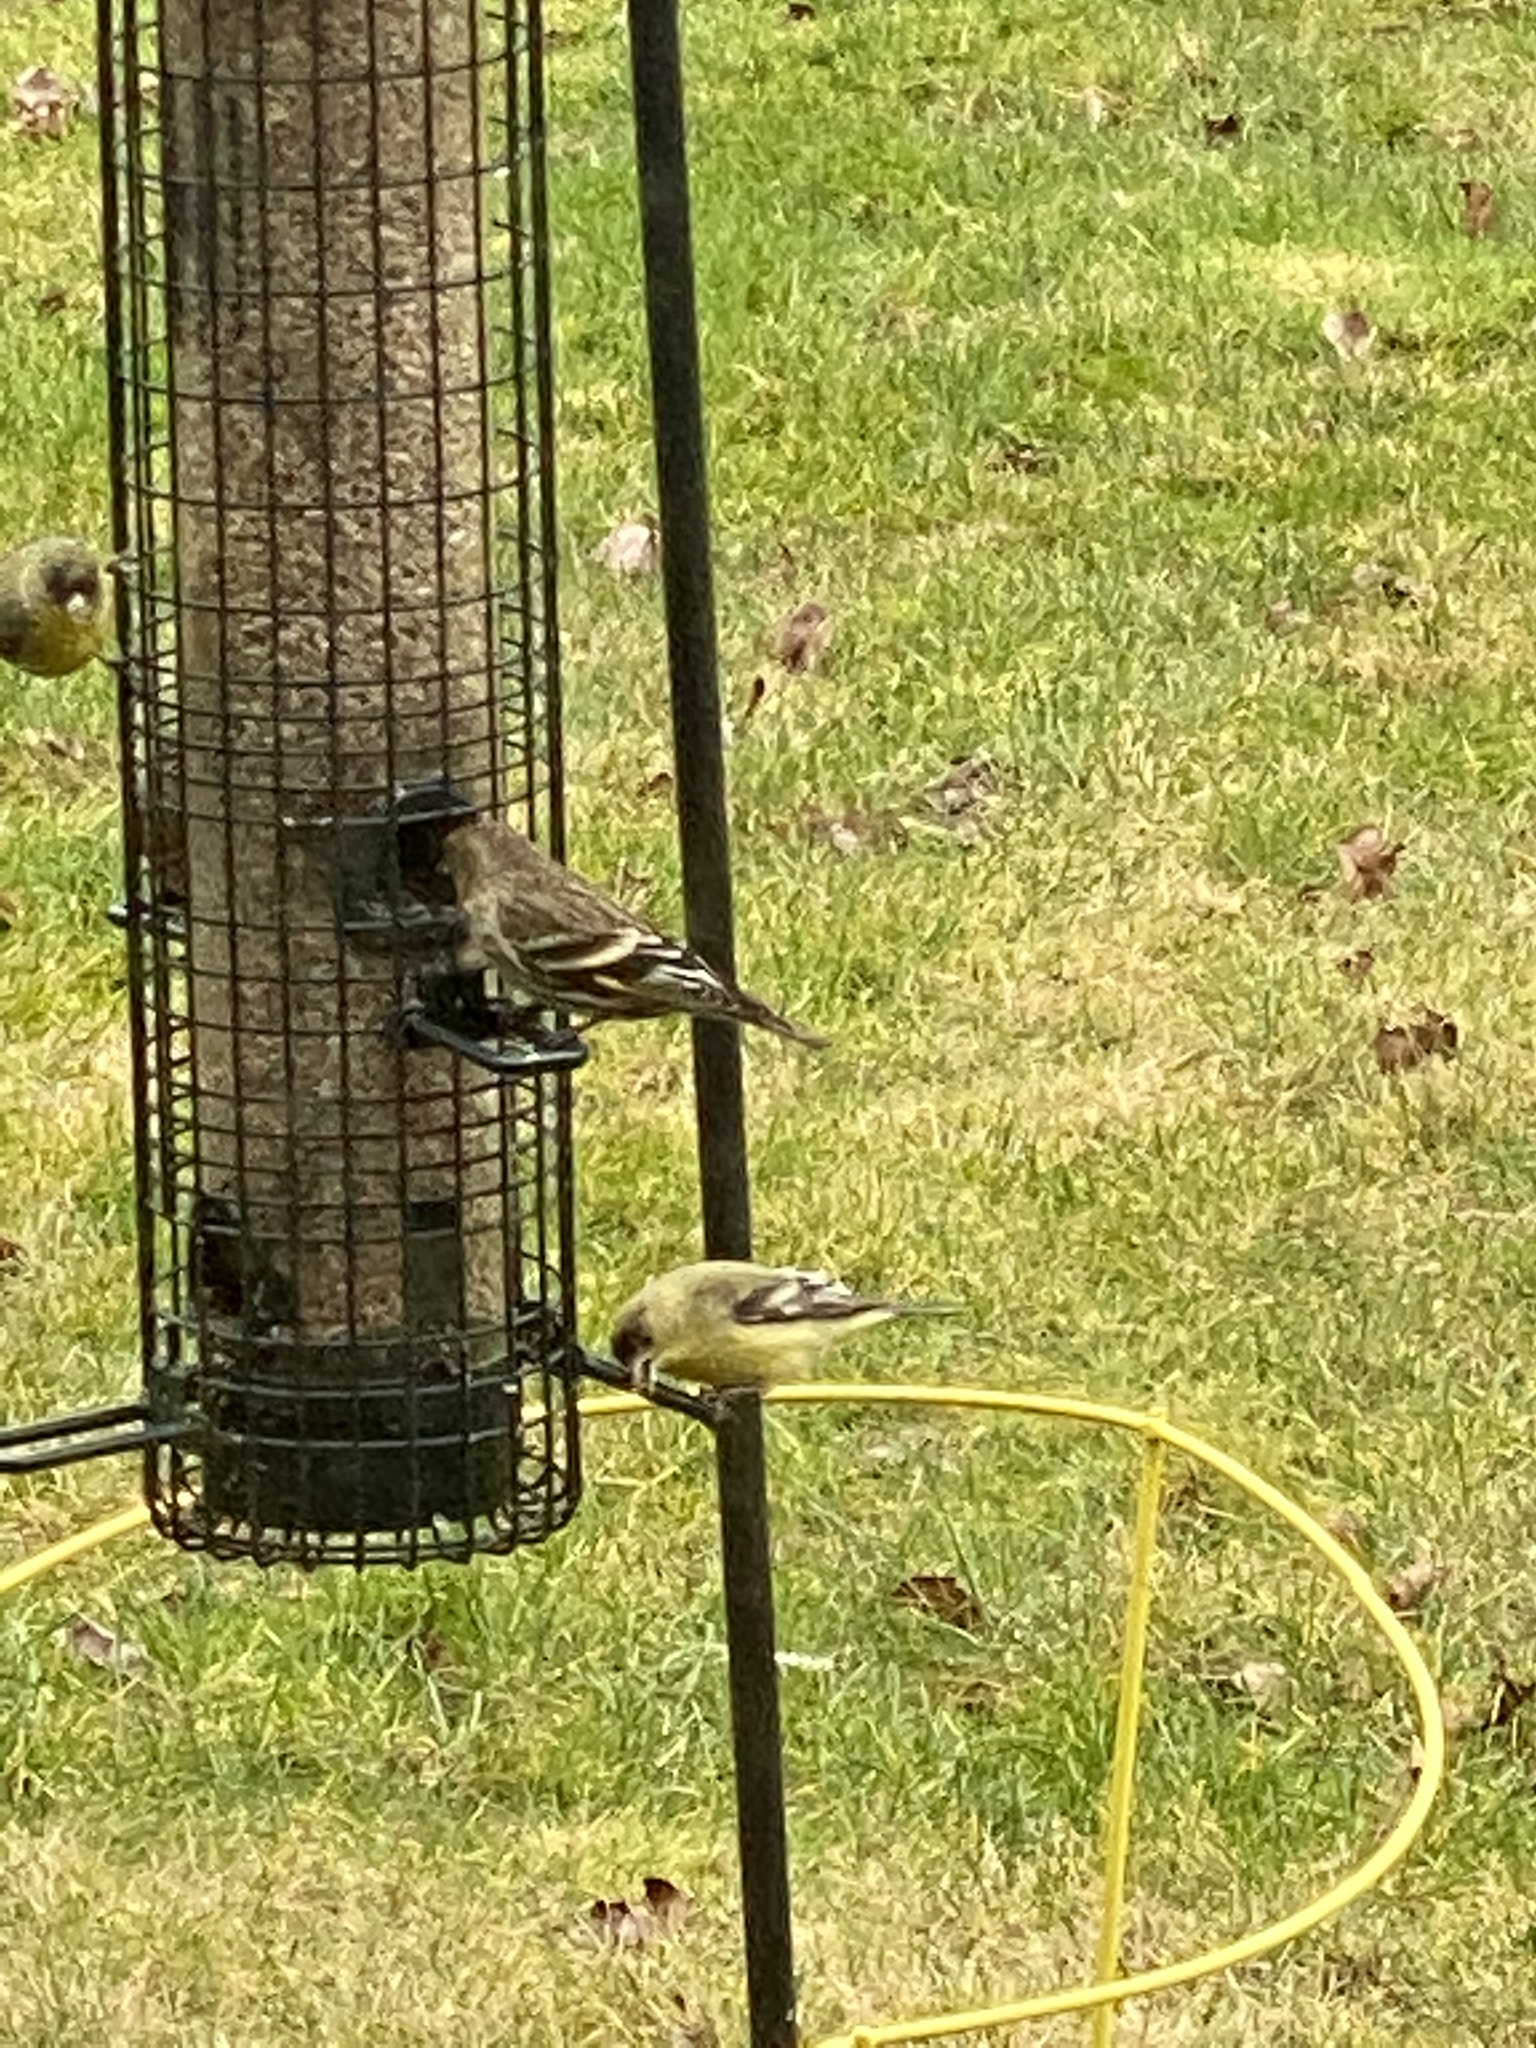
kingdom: Animalia
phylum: Chordata
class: Aves
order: Passeriformes
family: Fringillidae
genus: Spinus
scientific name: Spinus pinus
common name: Pine siskin
